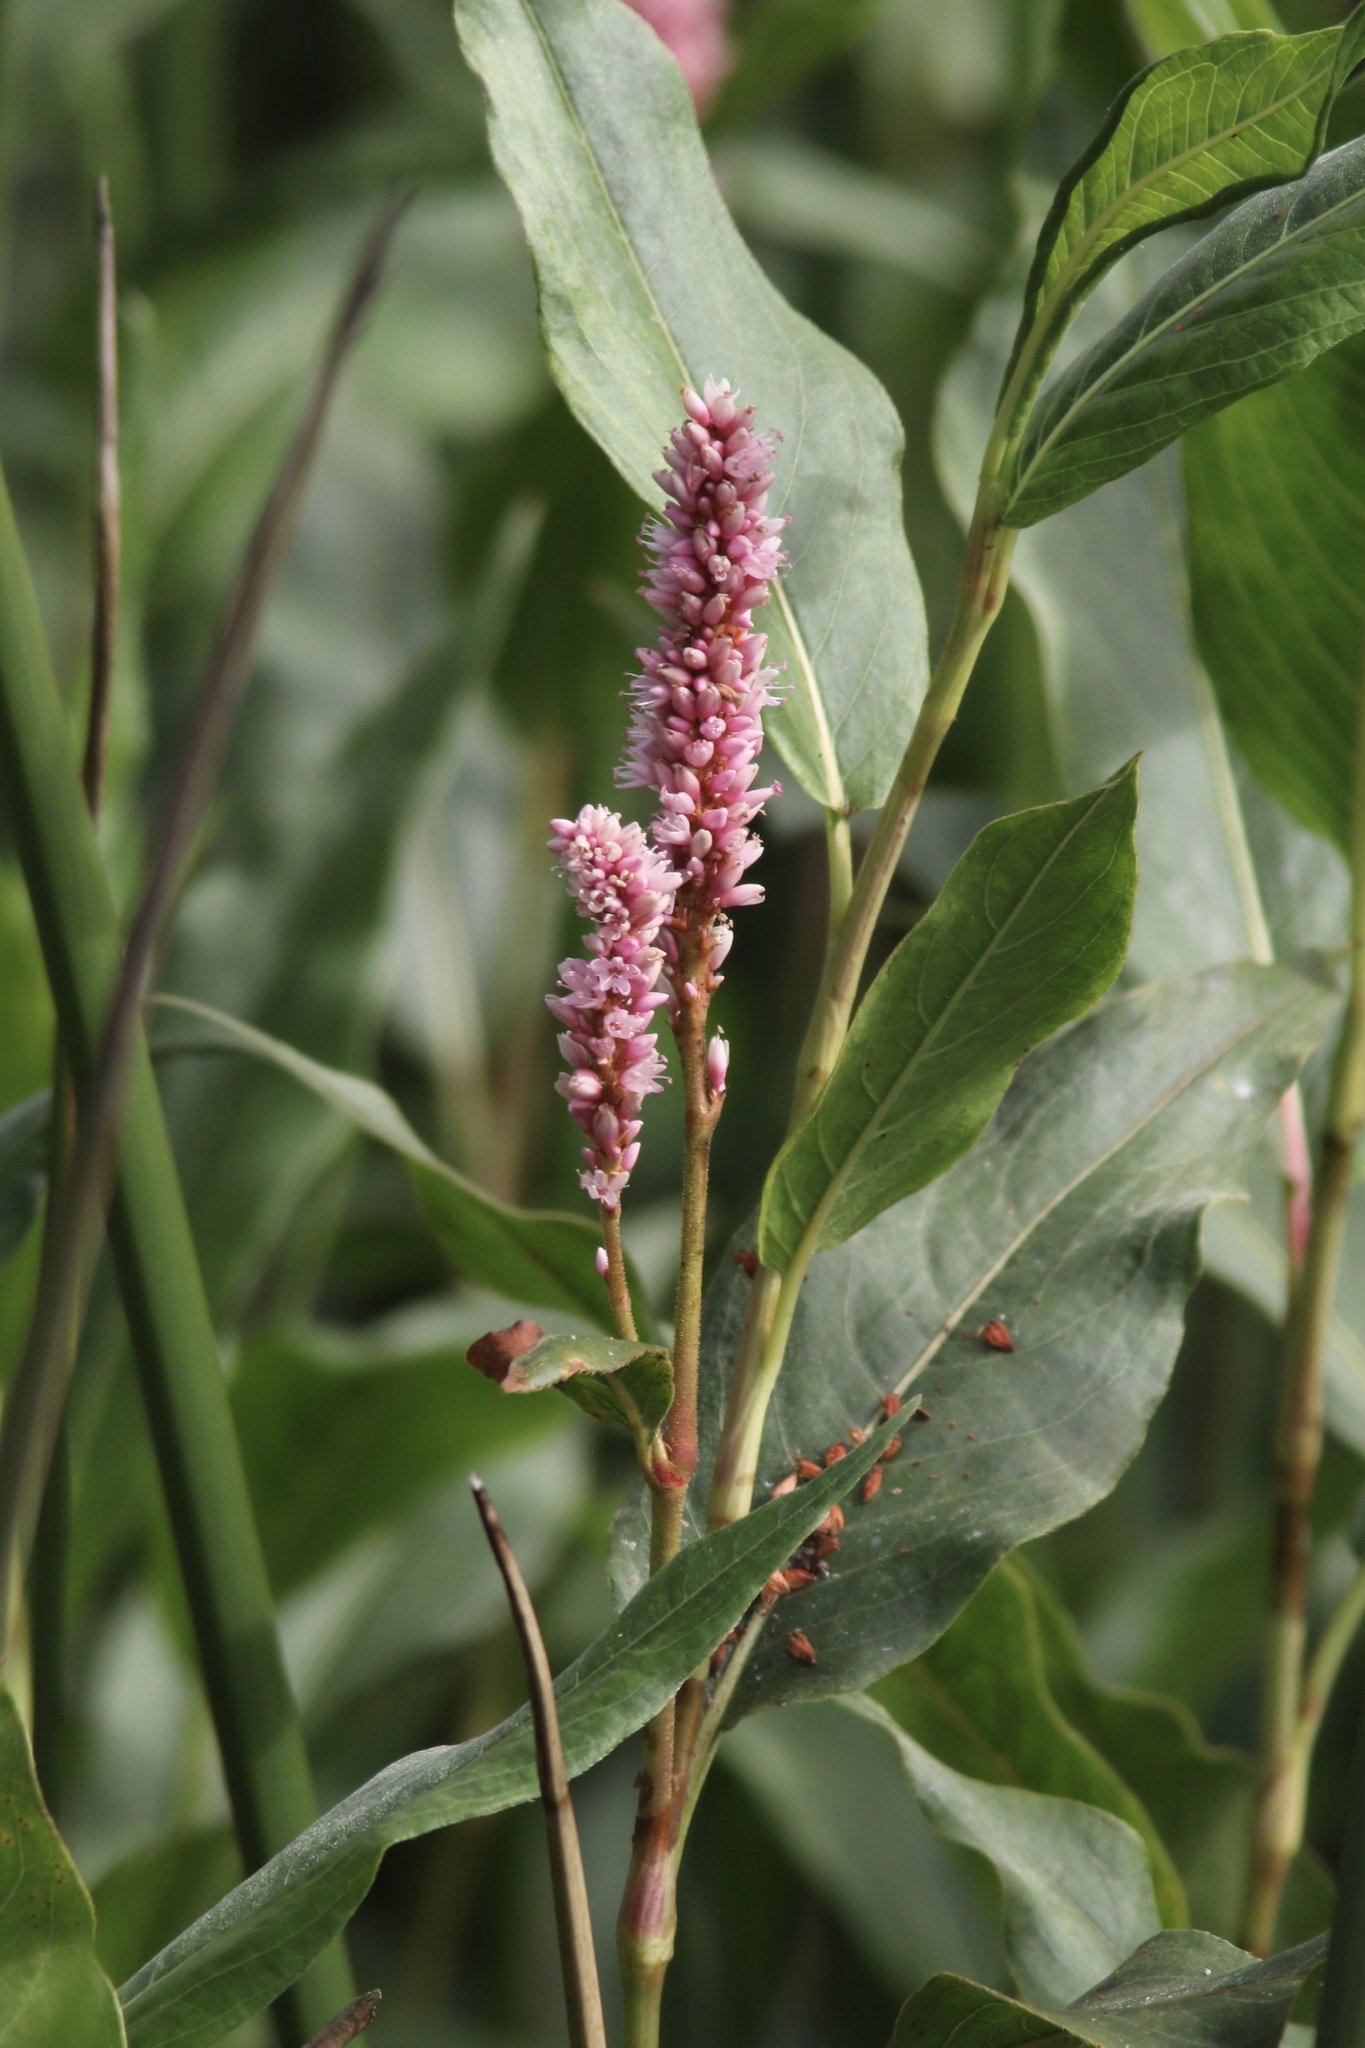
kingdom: Plantae
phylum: Tracheophyta
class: Magnoliopsida
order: Caryophyllales
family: Polygonaceae
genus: Persicaria
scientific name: Persicaria amphibia
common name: Amphibious bistort
